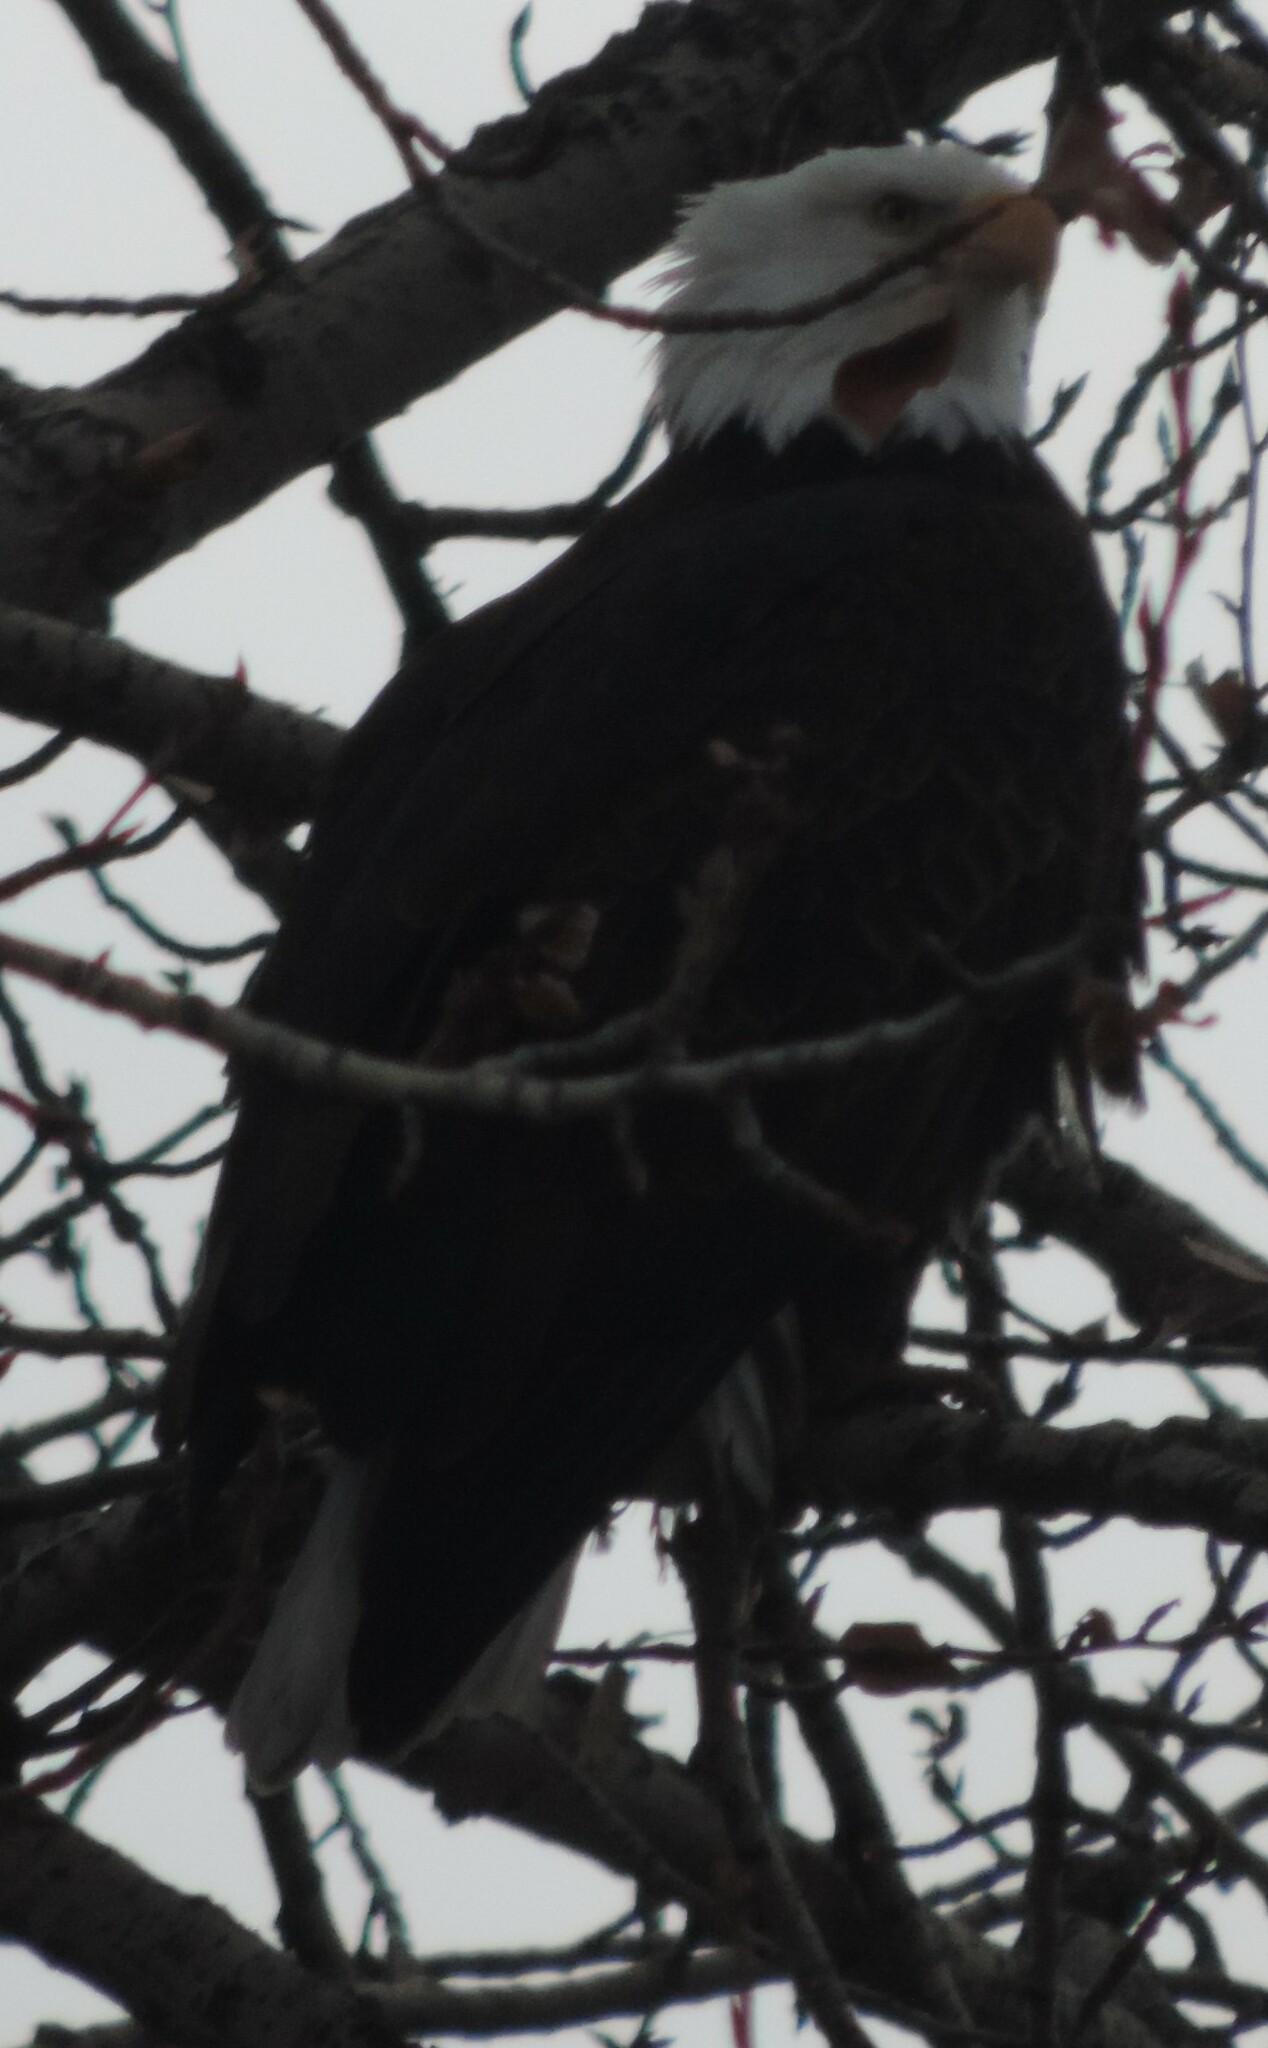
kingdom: Animalia
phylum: Chordata
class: Aves
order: Accipitriformes
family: Accipitridae
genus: Haliaeetus
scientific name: Haliaeetus leucocephalus
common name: Bald eagle
